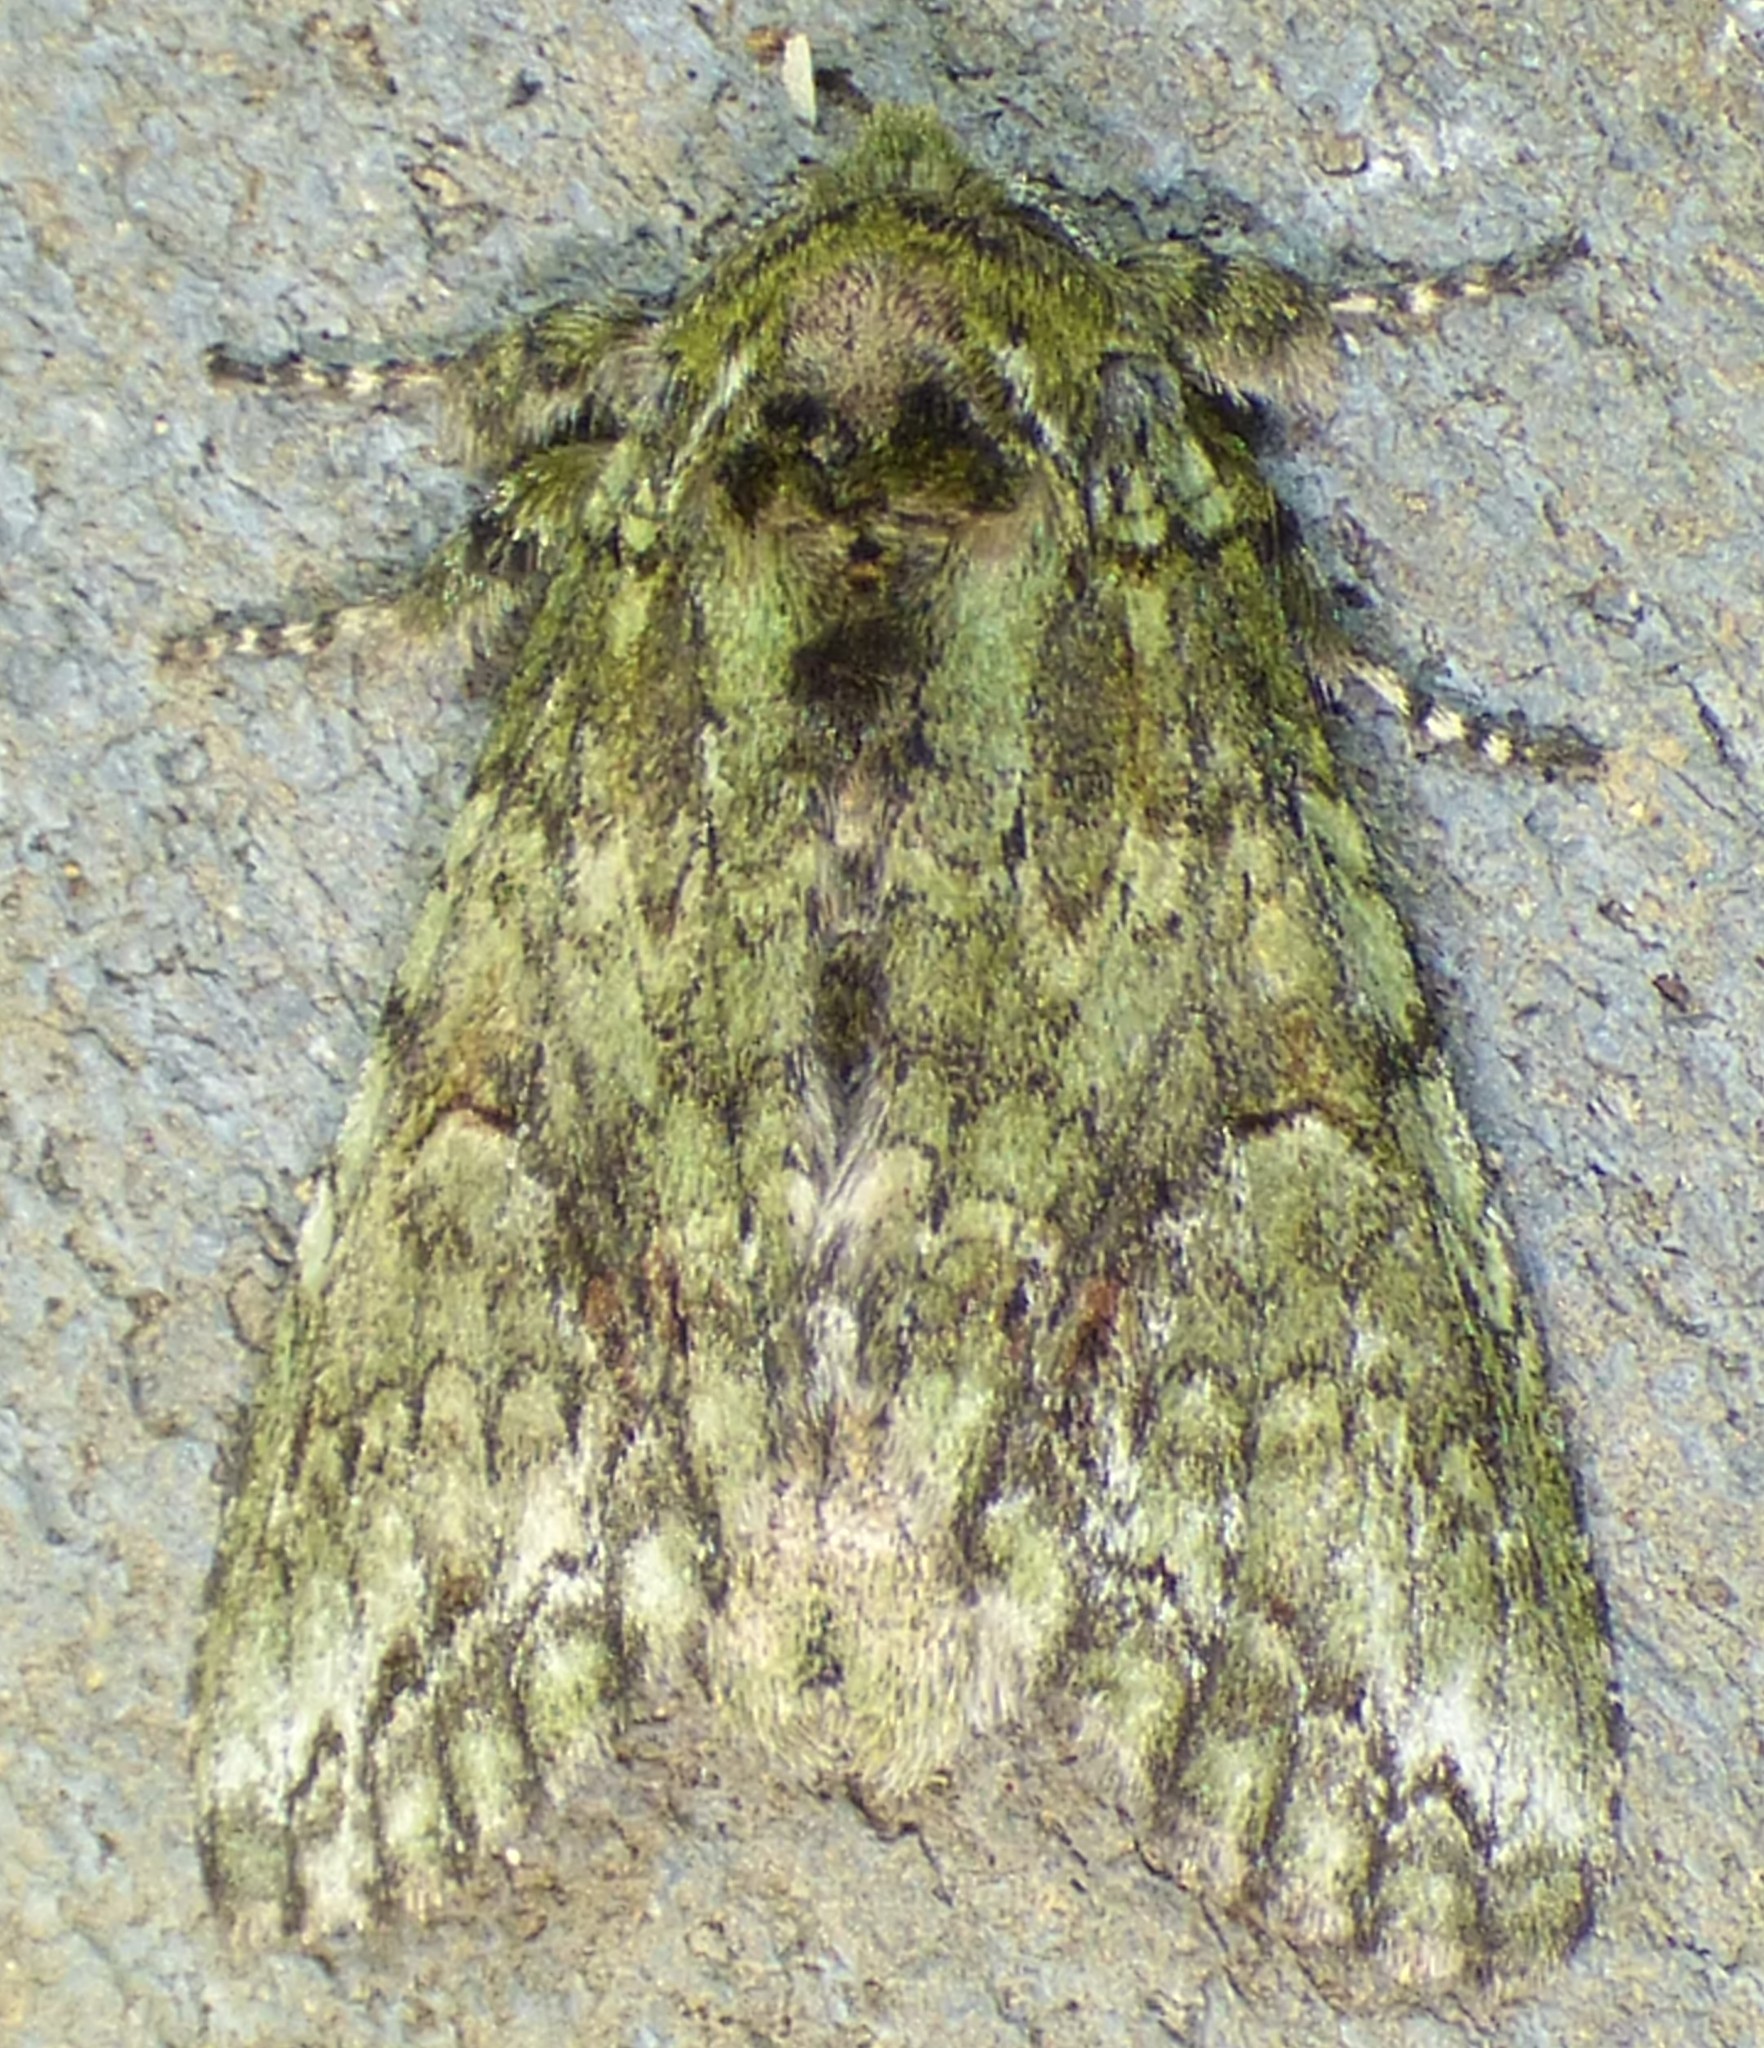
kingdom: Animalia
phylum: Arthropoda
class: Insecta
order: Lepidoptera
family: Notodontidae
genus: Heterocampa
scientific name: Heterocampa
